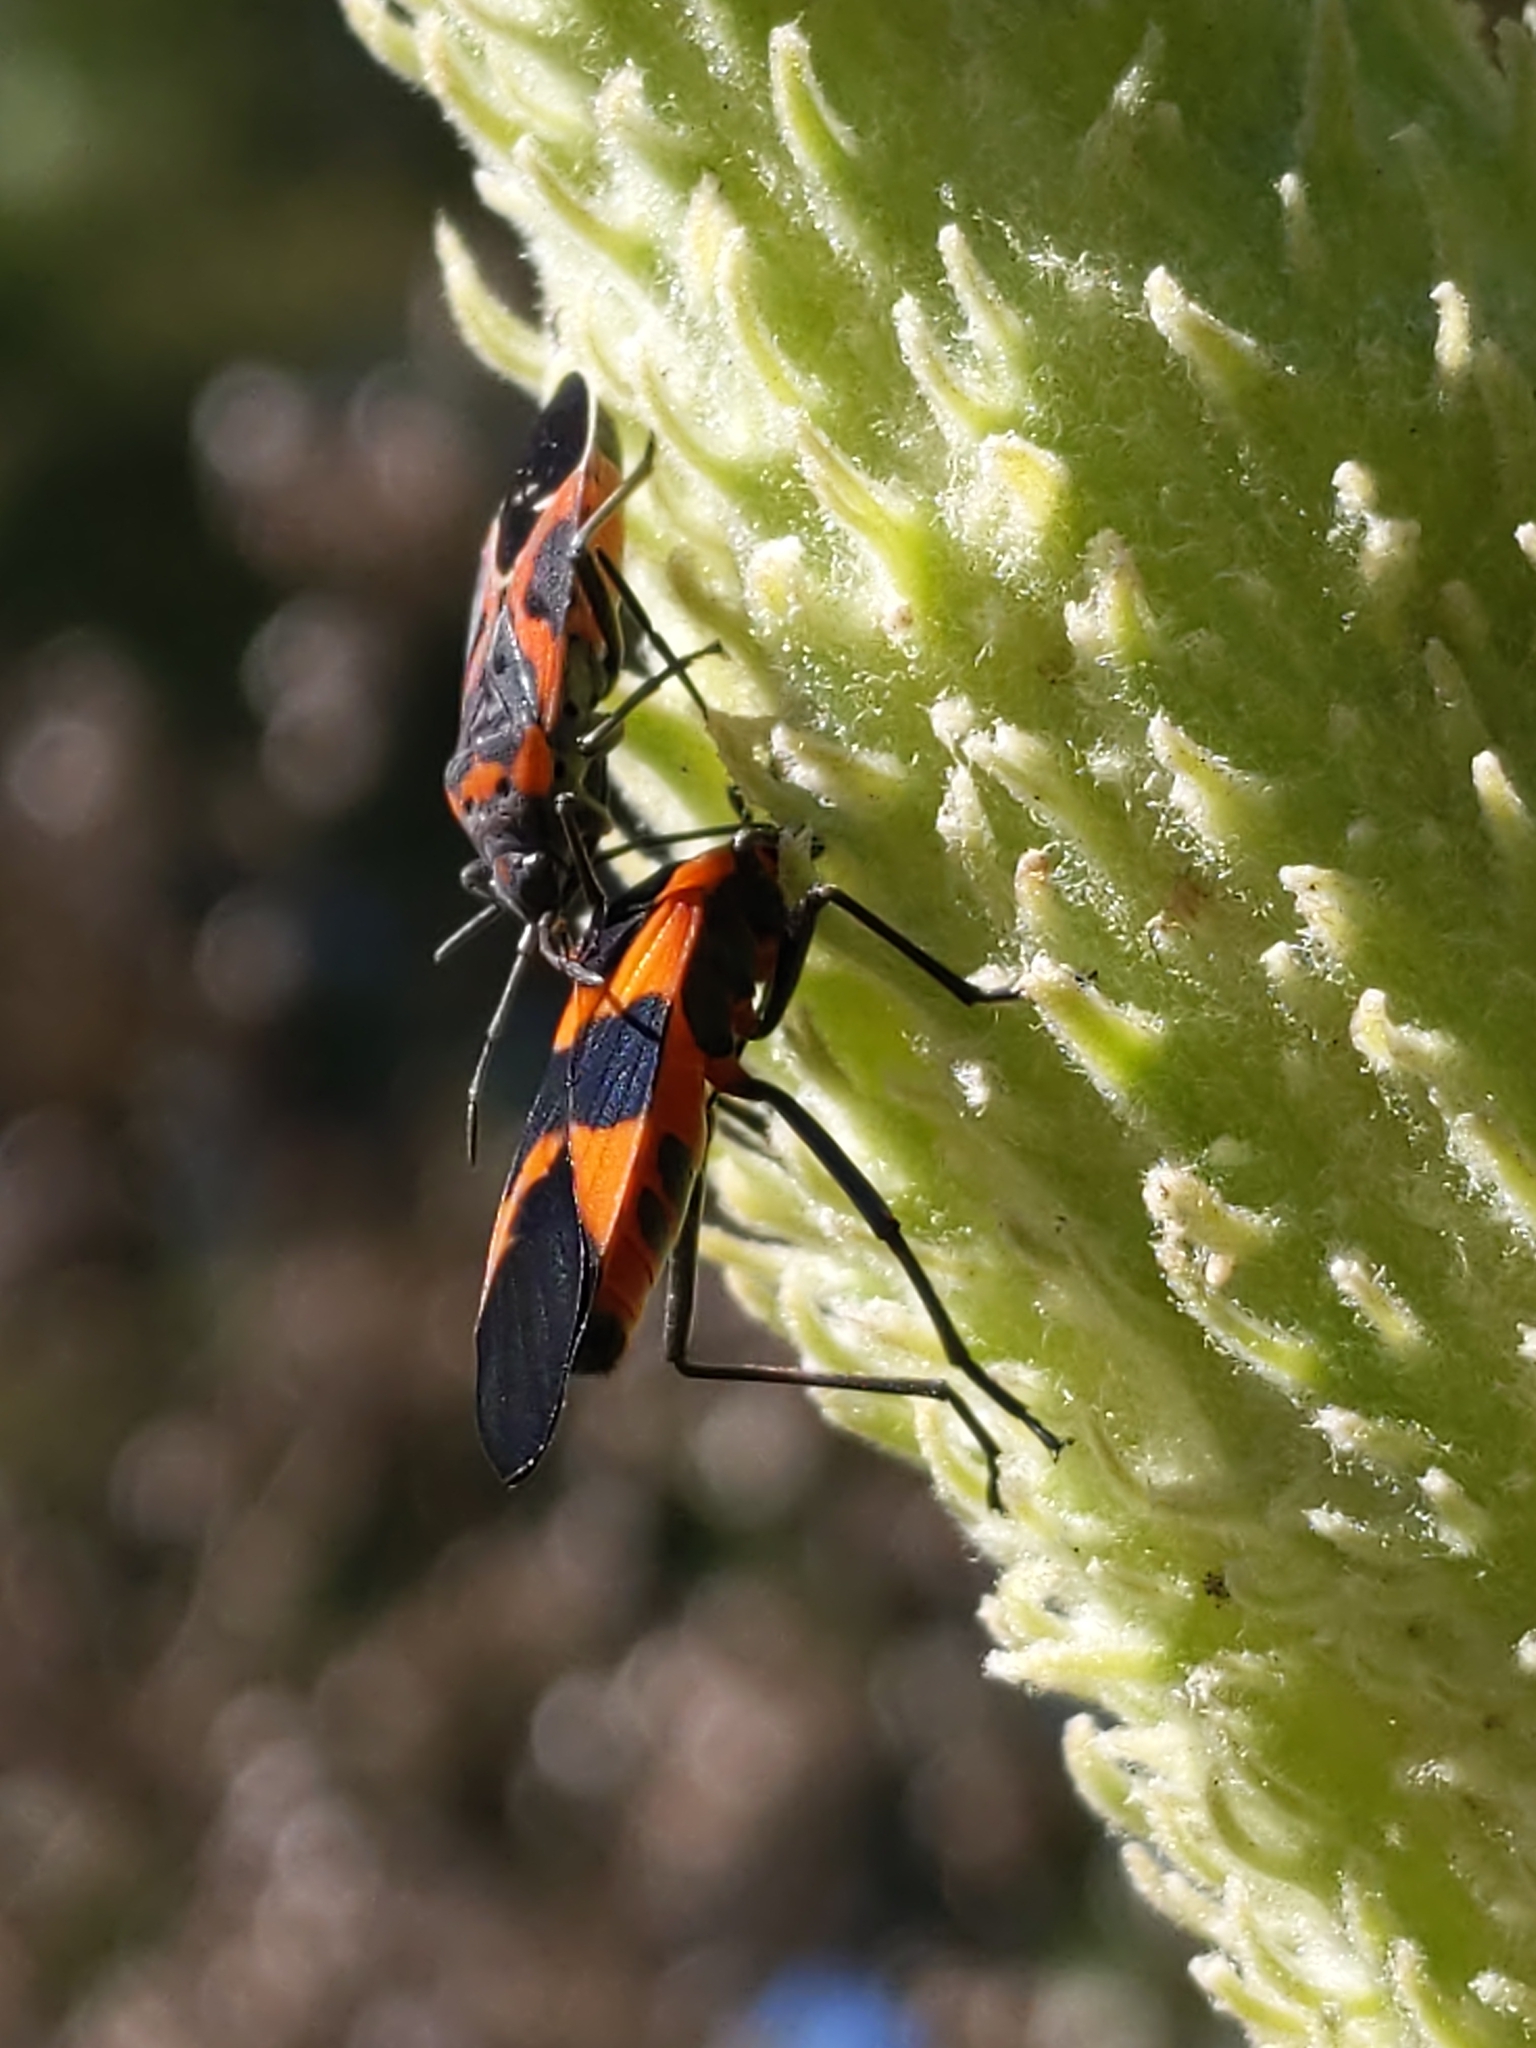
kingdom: Animalia
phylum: Arthropoda
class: Insecta
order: Hemiptera
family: Lygaeidae
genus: Lygaeus
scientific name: Lygaeus kalmii
